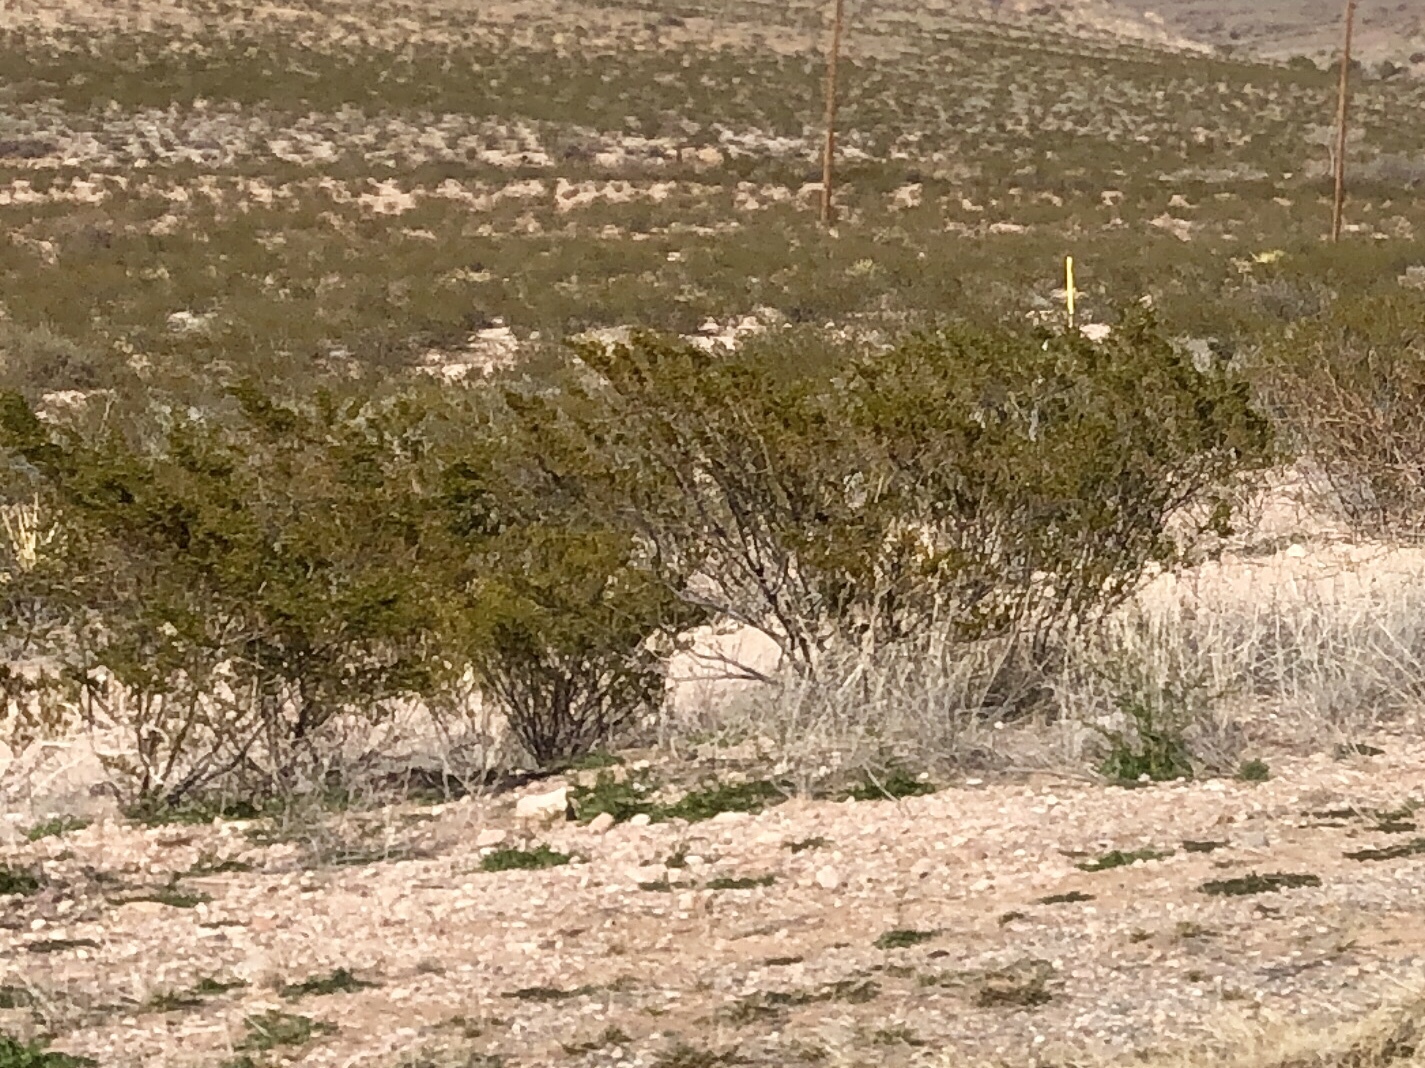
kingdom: Plantae
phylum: Tracheophyta
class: Magnoliopsida
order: Zygophyllales
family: Zygophyllaceae
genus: Larrea
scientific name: Larrea tridentata
